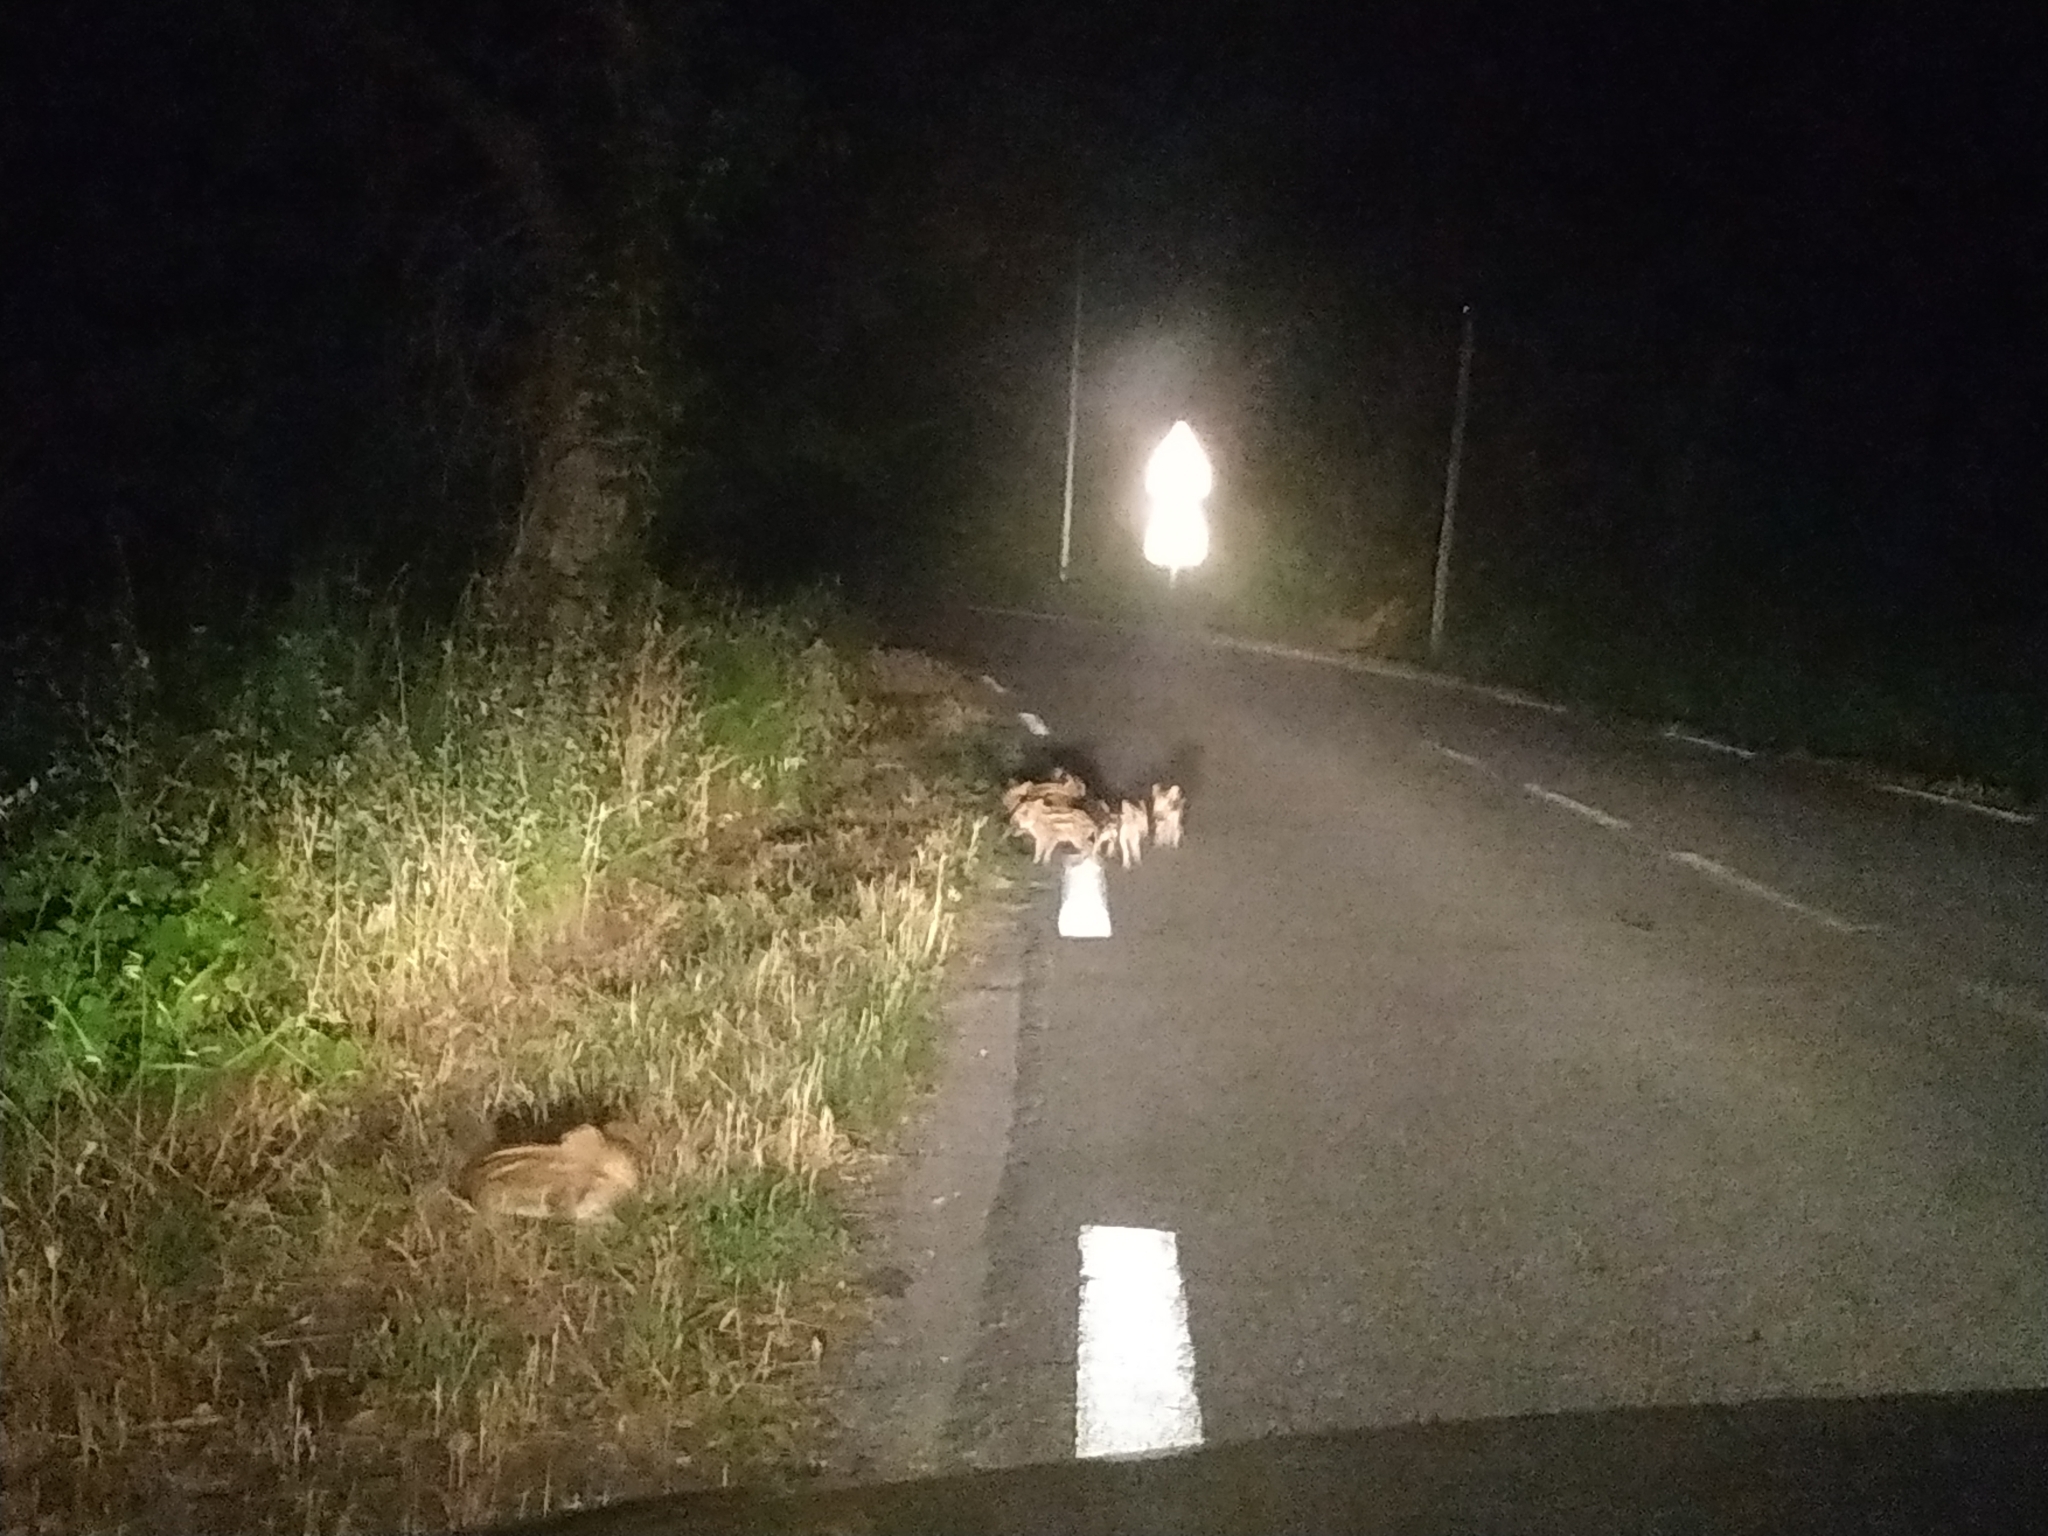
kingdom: Animalia
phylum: Chordata
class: Mammalia
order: Artiodactyla
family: Suidae
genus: Sus
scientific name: Sus scrofa
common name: Wild boar
